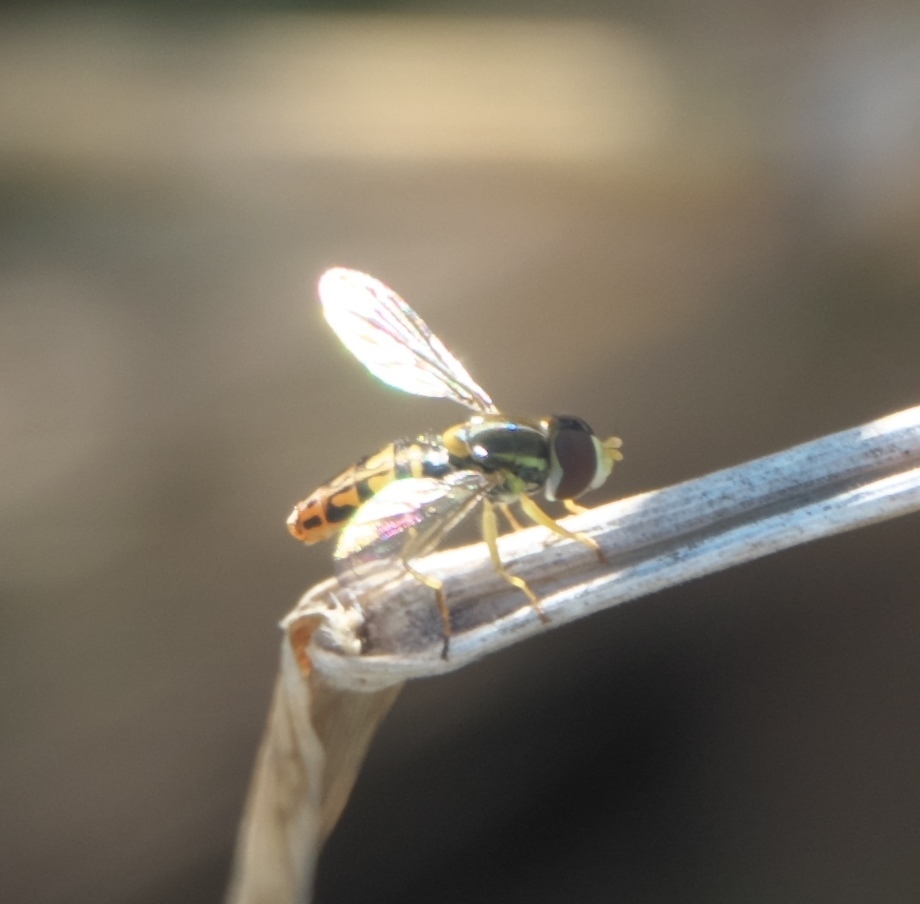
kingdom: Animalia
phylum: Arthropoda
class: Insecta
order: Diptera
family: Syrphidae
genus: Toxomerus
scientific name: Toxomerus marginatus
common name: Syrphid fly
